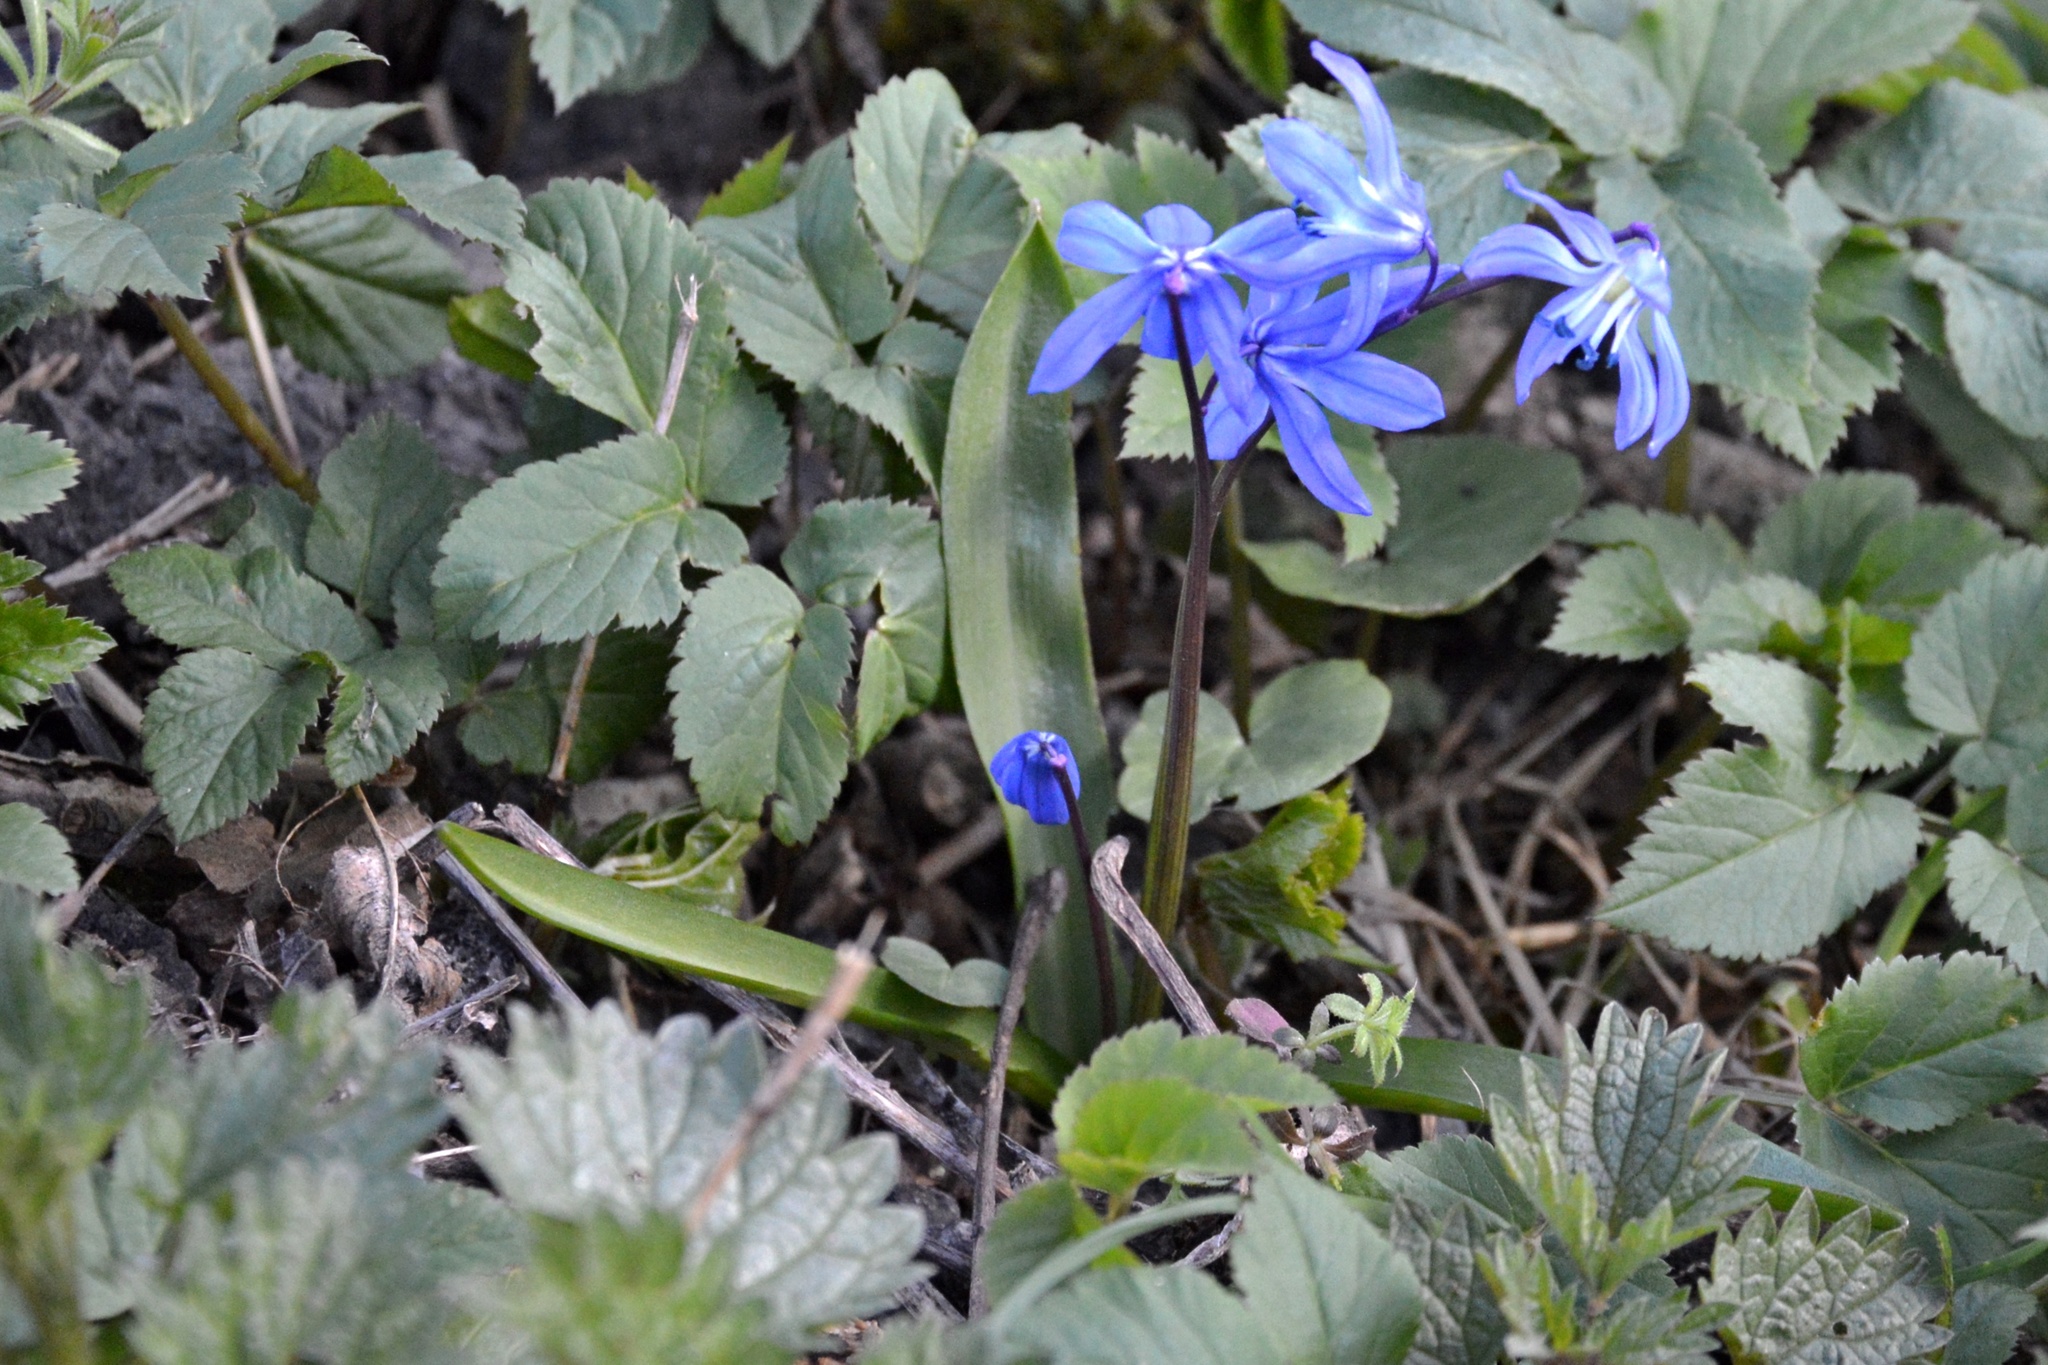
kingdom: Plantae
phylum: Tracheophyta
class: Liliopsida
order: Asparagales
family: Asparagaceae
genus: Scilla
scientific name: Scilla siberica
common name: Siberian squill
